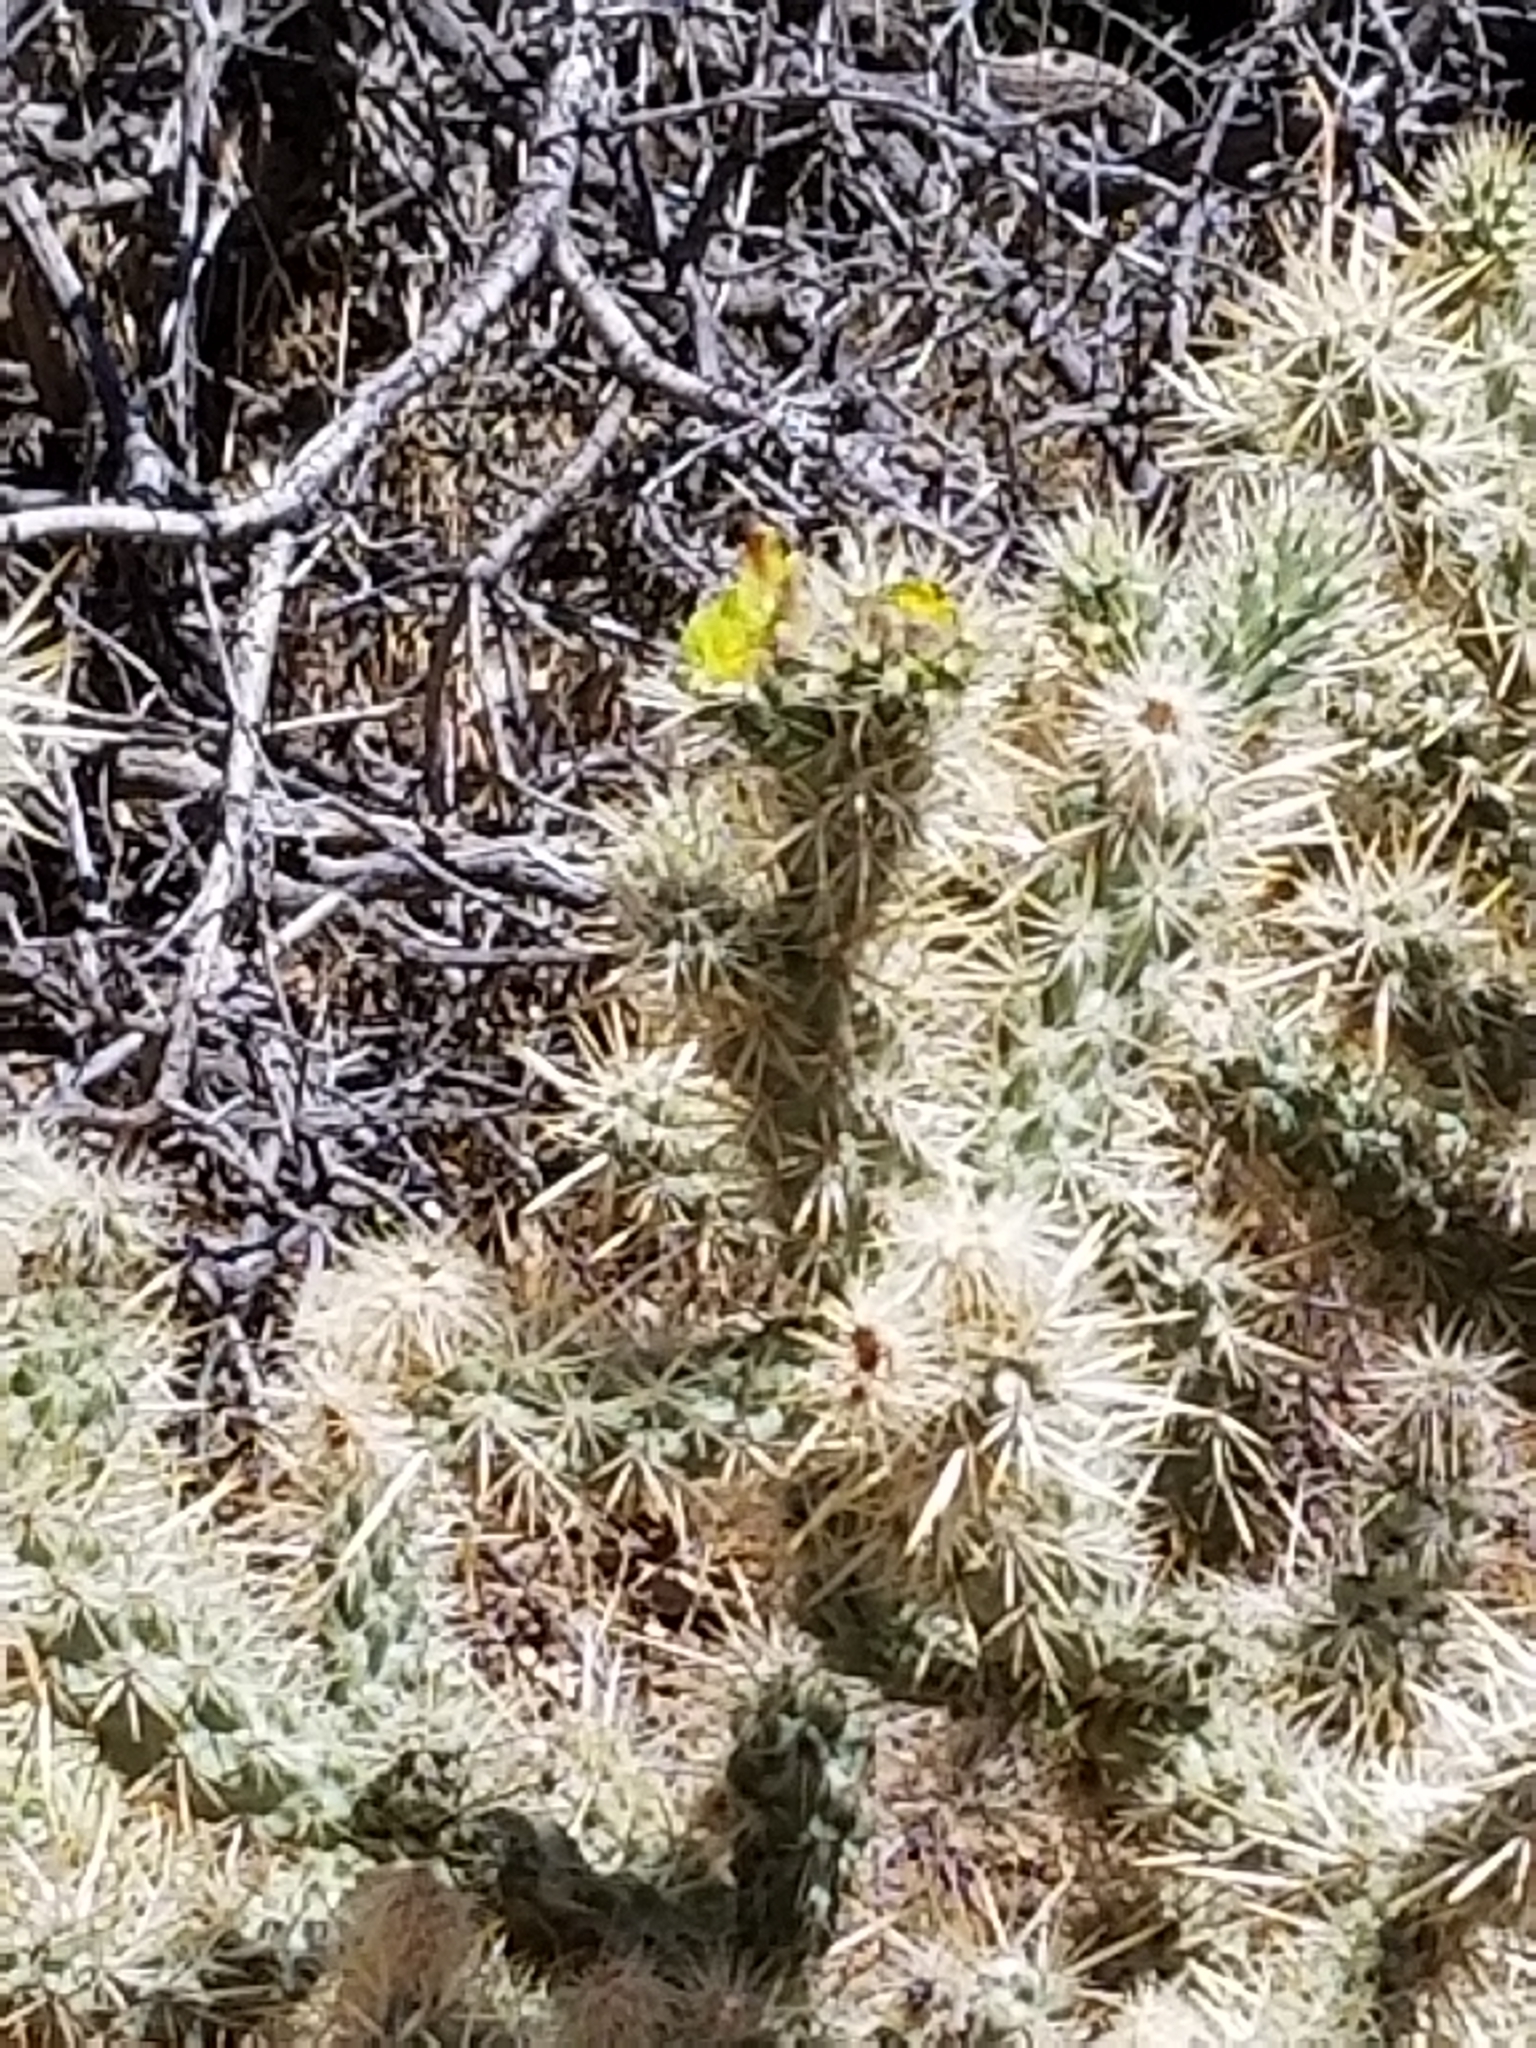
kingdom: Plantae
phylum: Tracheophyta
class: Magnoliopsida
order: Caryophyllales
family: Cactaceae
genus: Cylindropuntia
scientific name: Cylindropuntia echinocarpa
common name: Ground cholla
